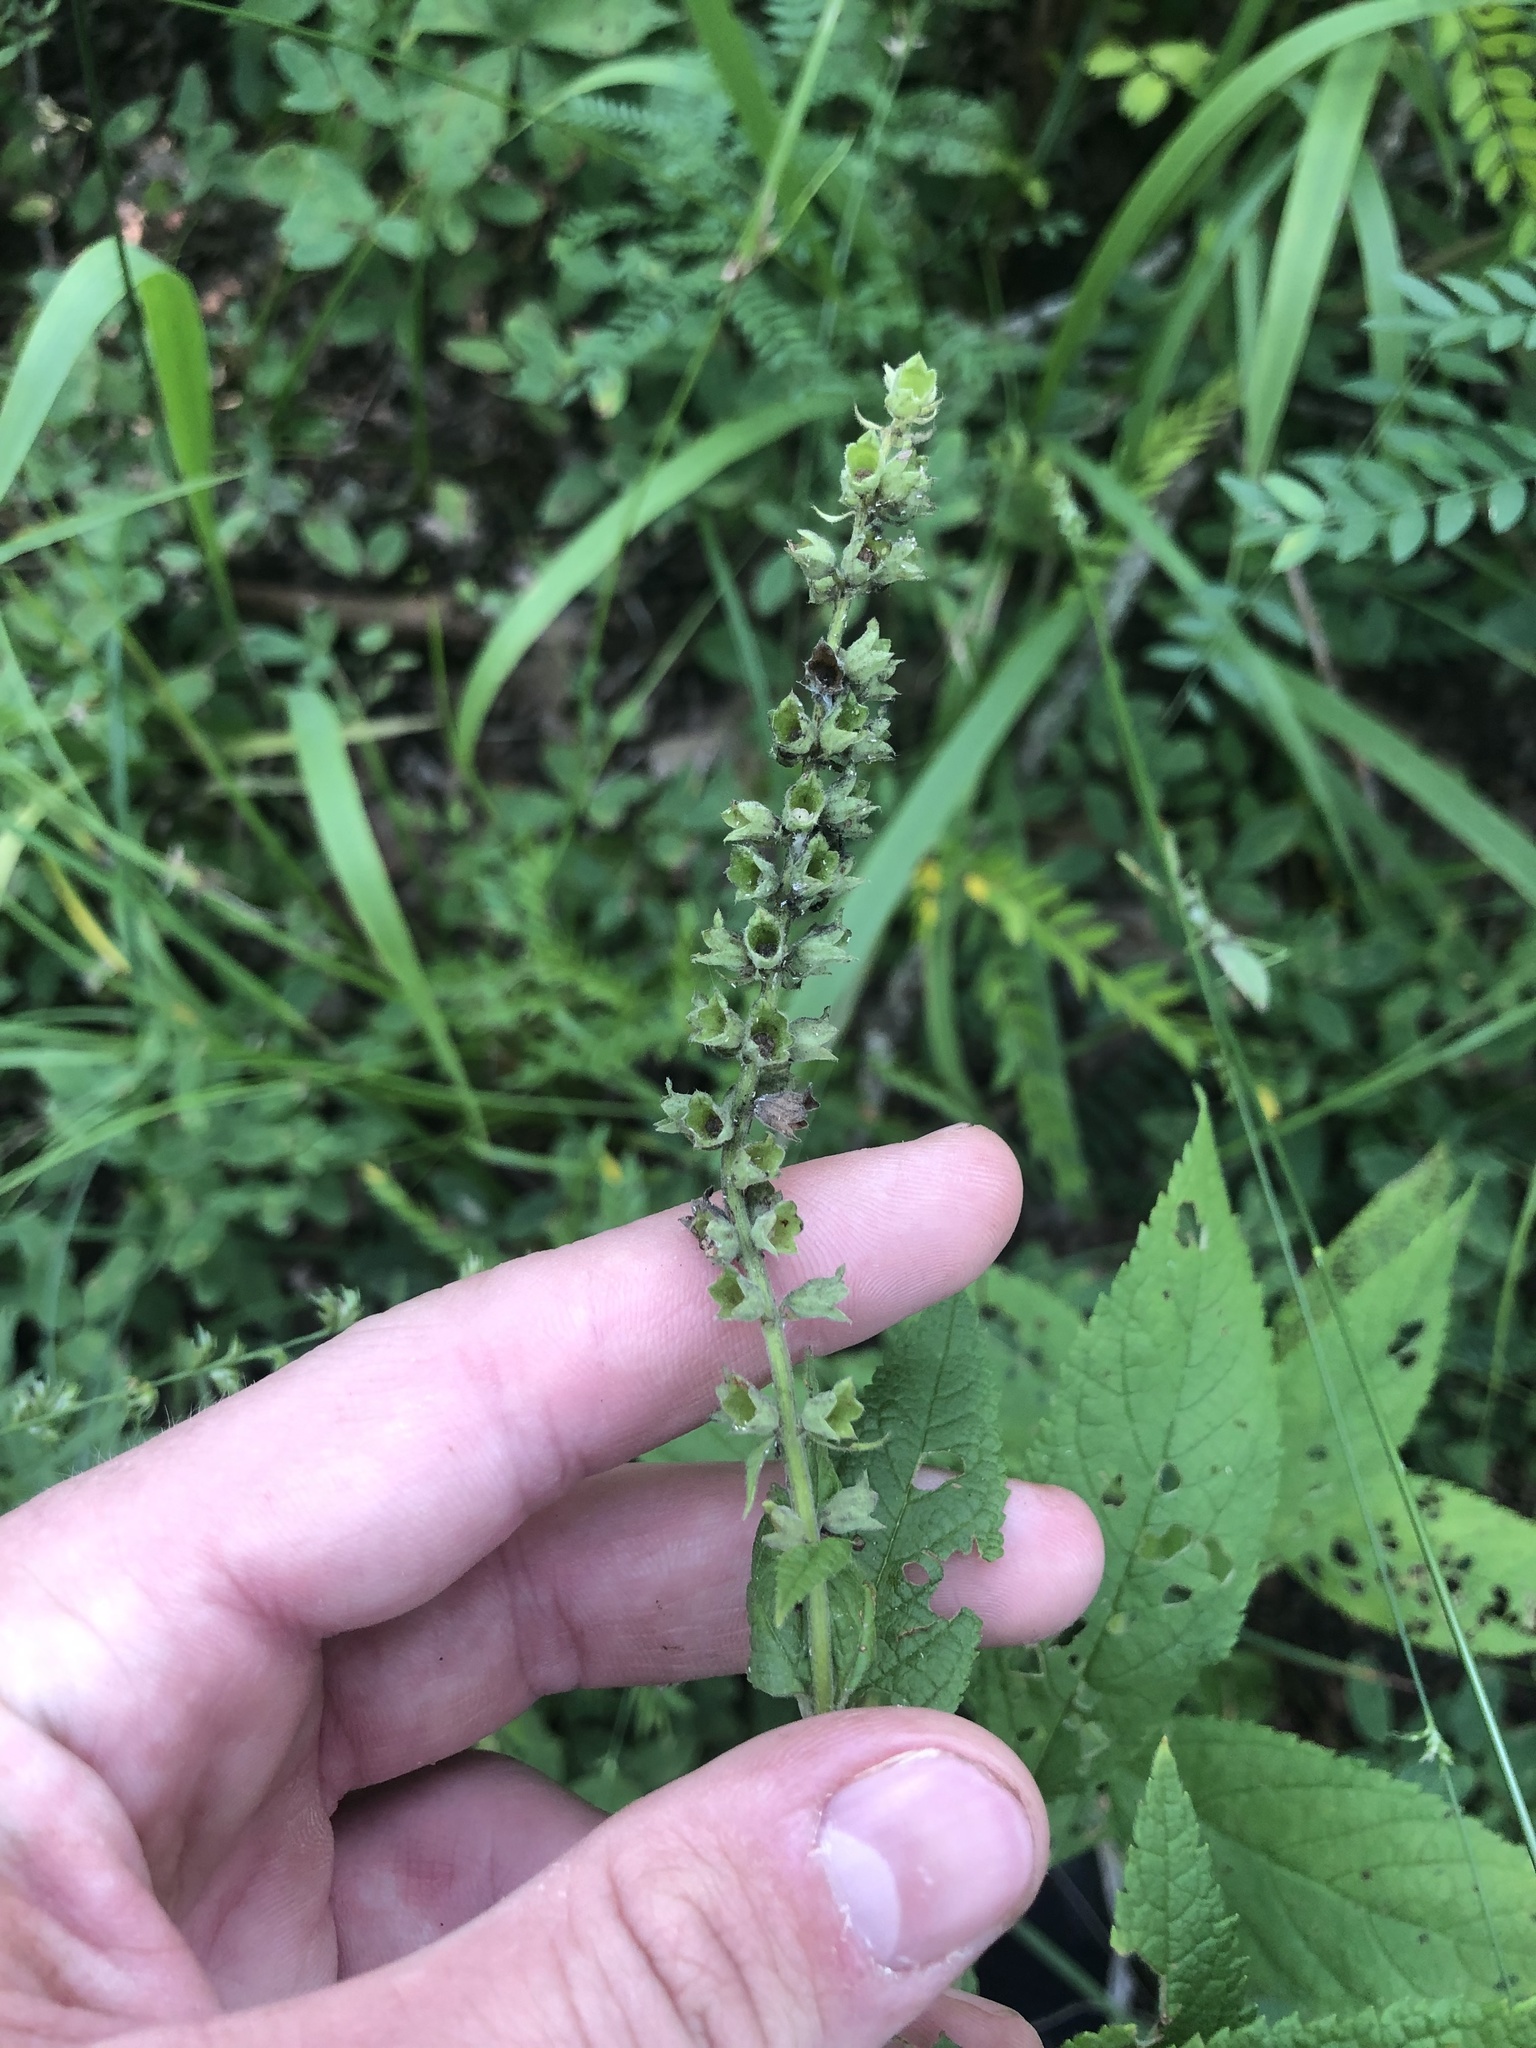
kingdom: Plantae
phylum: Tracheophyta
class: Magnoliopsida
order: Lamiales
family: Lamiaceae
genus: Teucrium
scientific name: Teucrium canadense
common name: American germander
